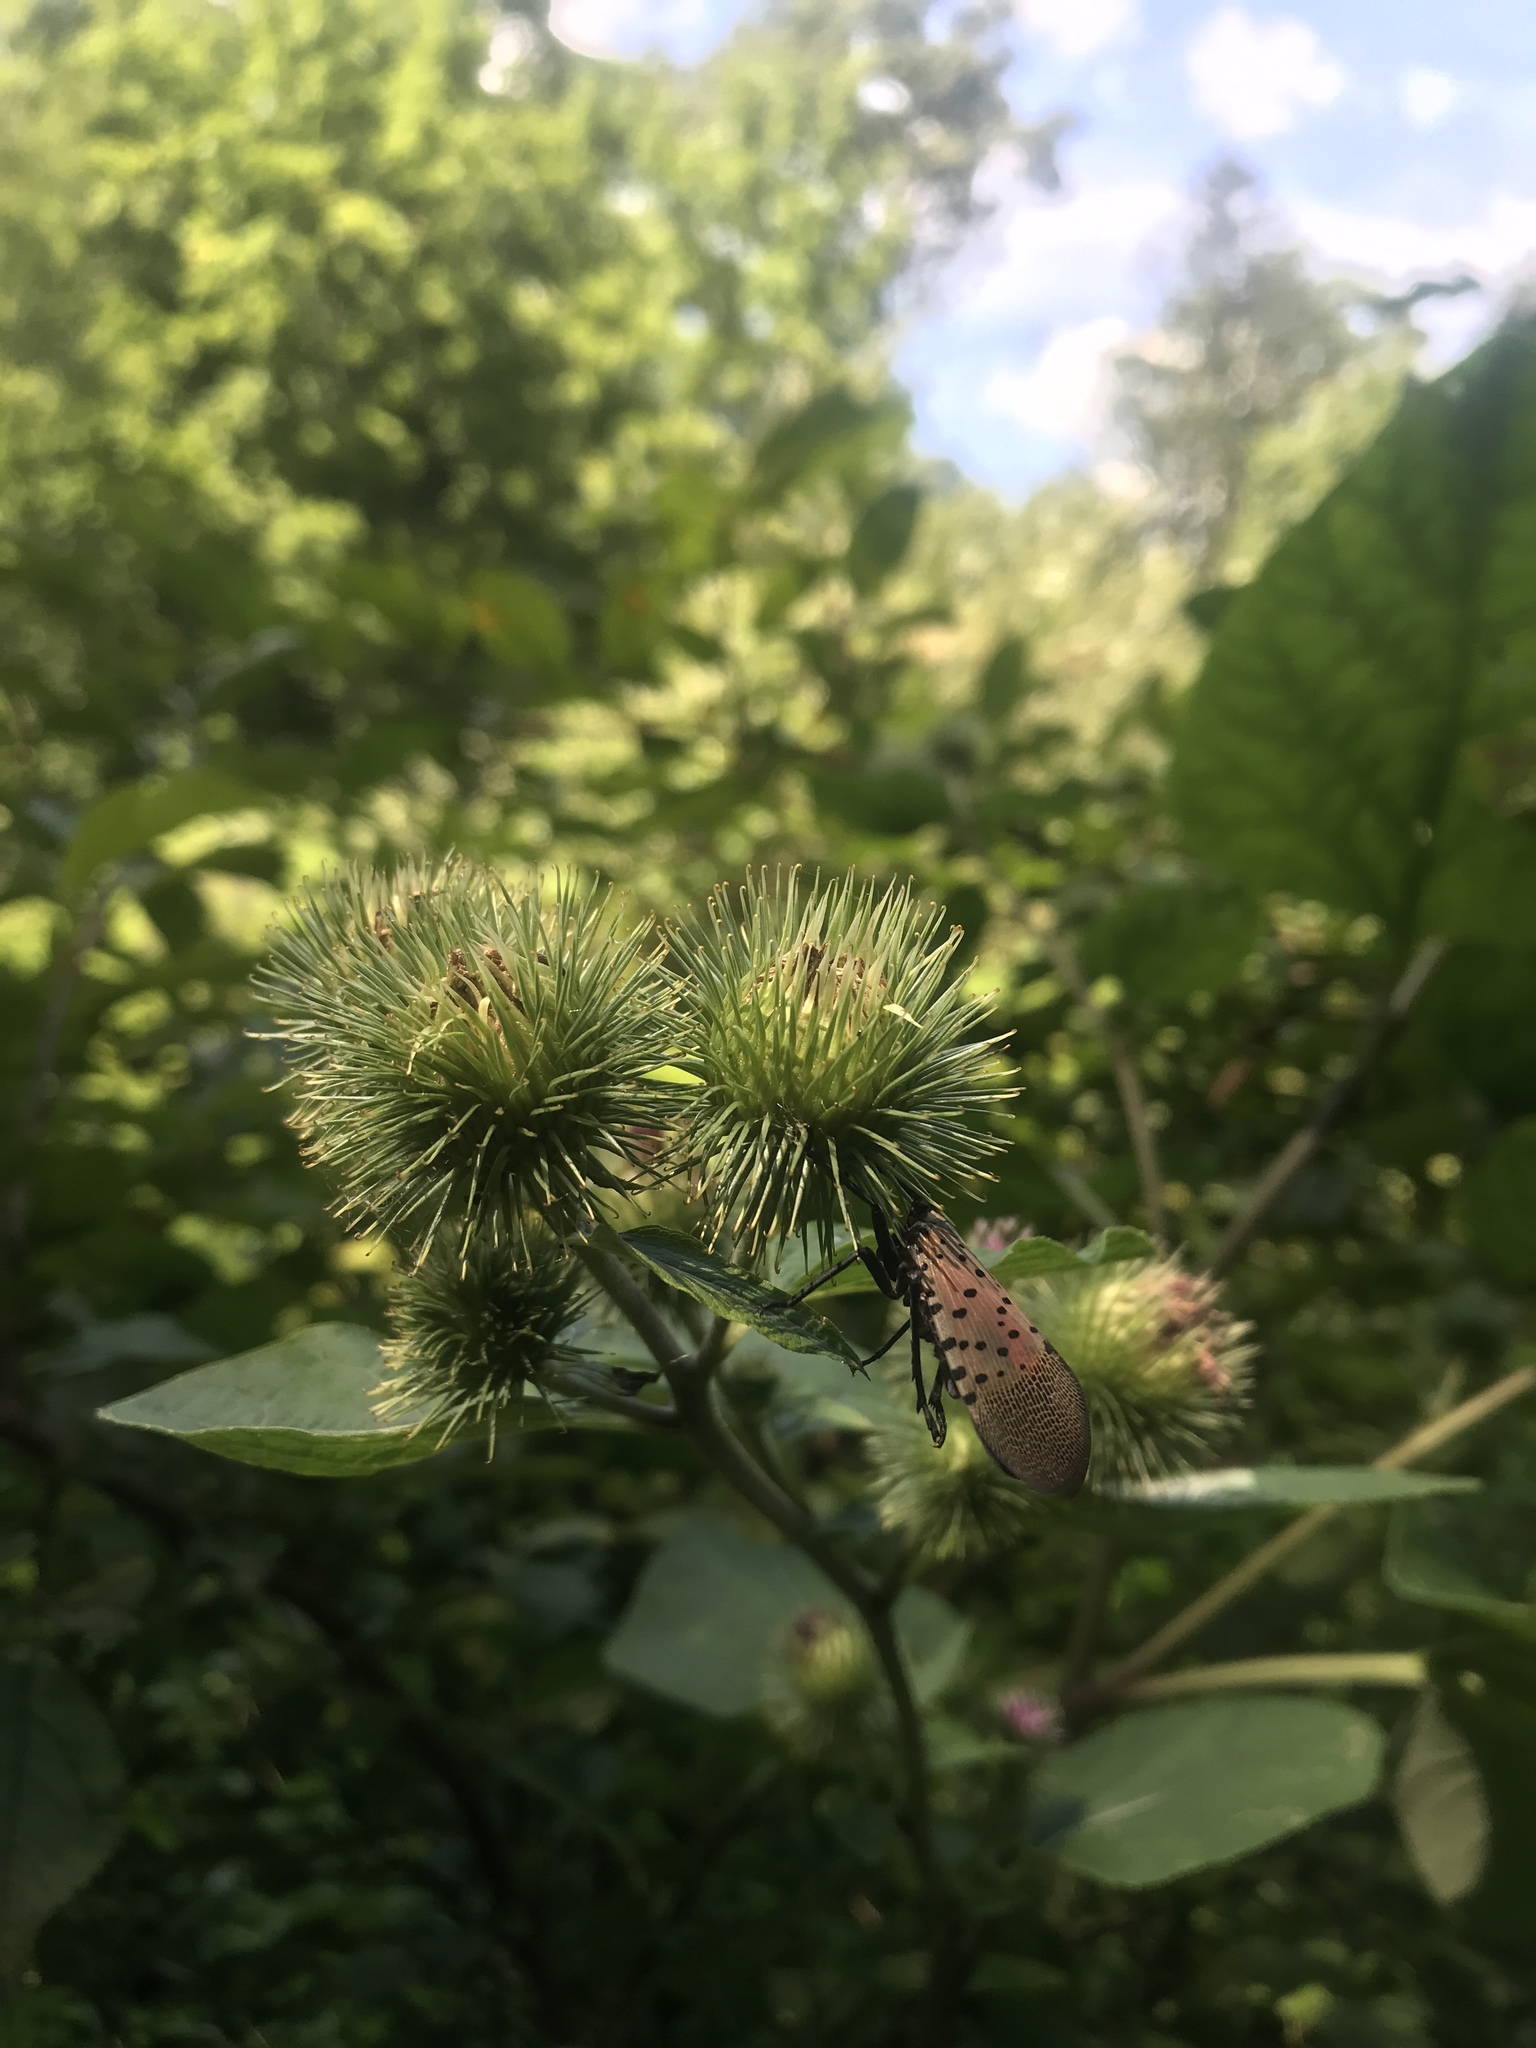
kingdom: Animalia
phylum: Arthropoda
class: Insecta
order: Hemiptera
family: Fulgoridae
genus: Lycorma
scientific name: Lycorma delicatula
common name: Spotted lanternfly
